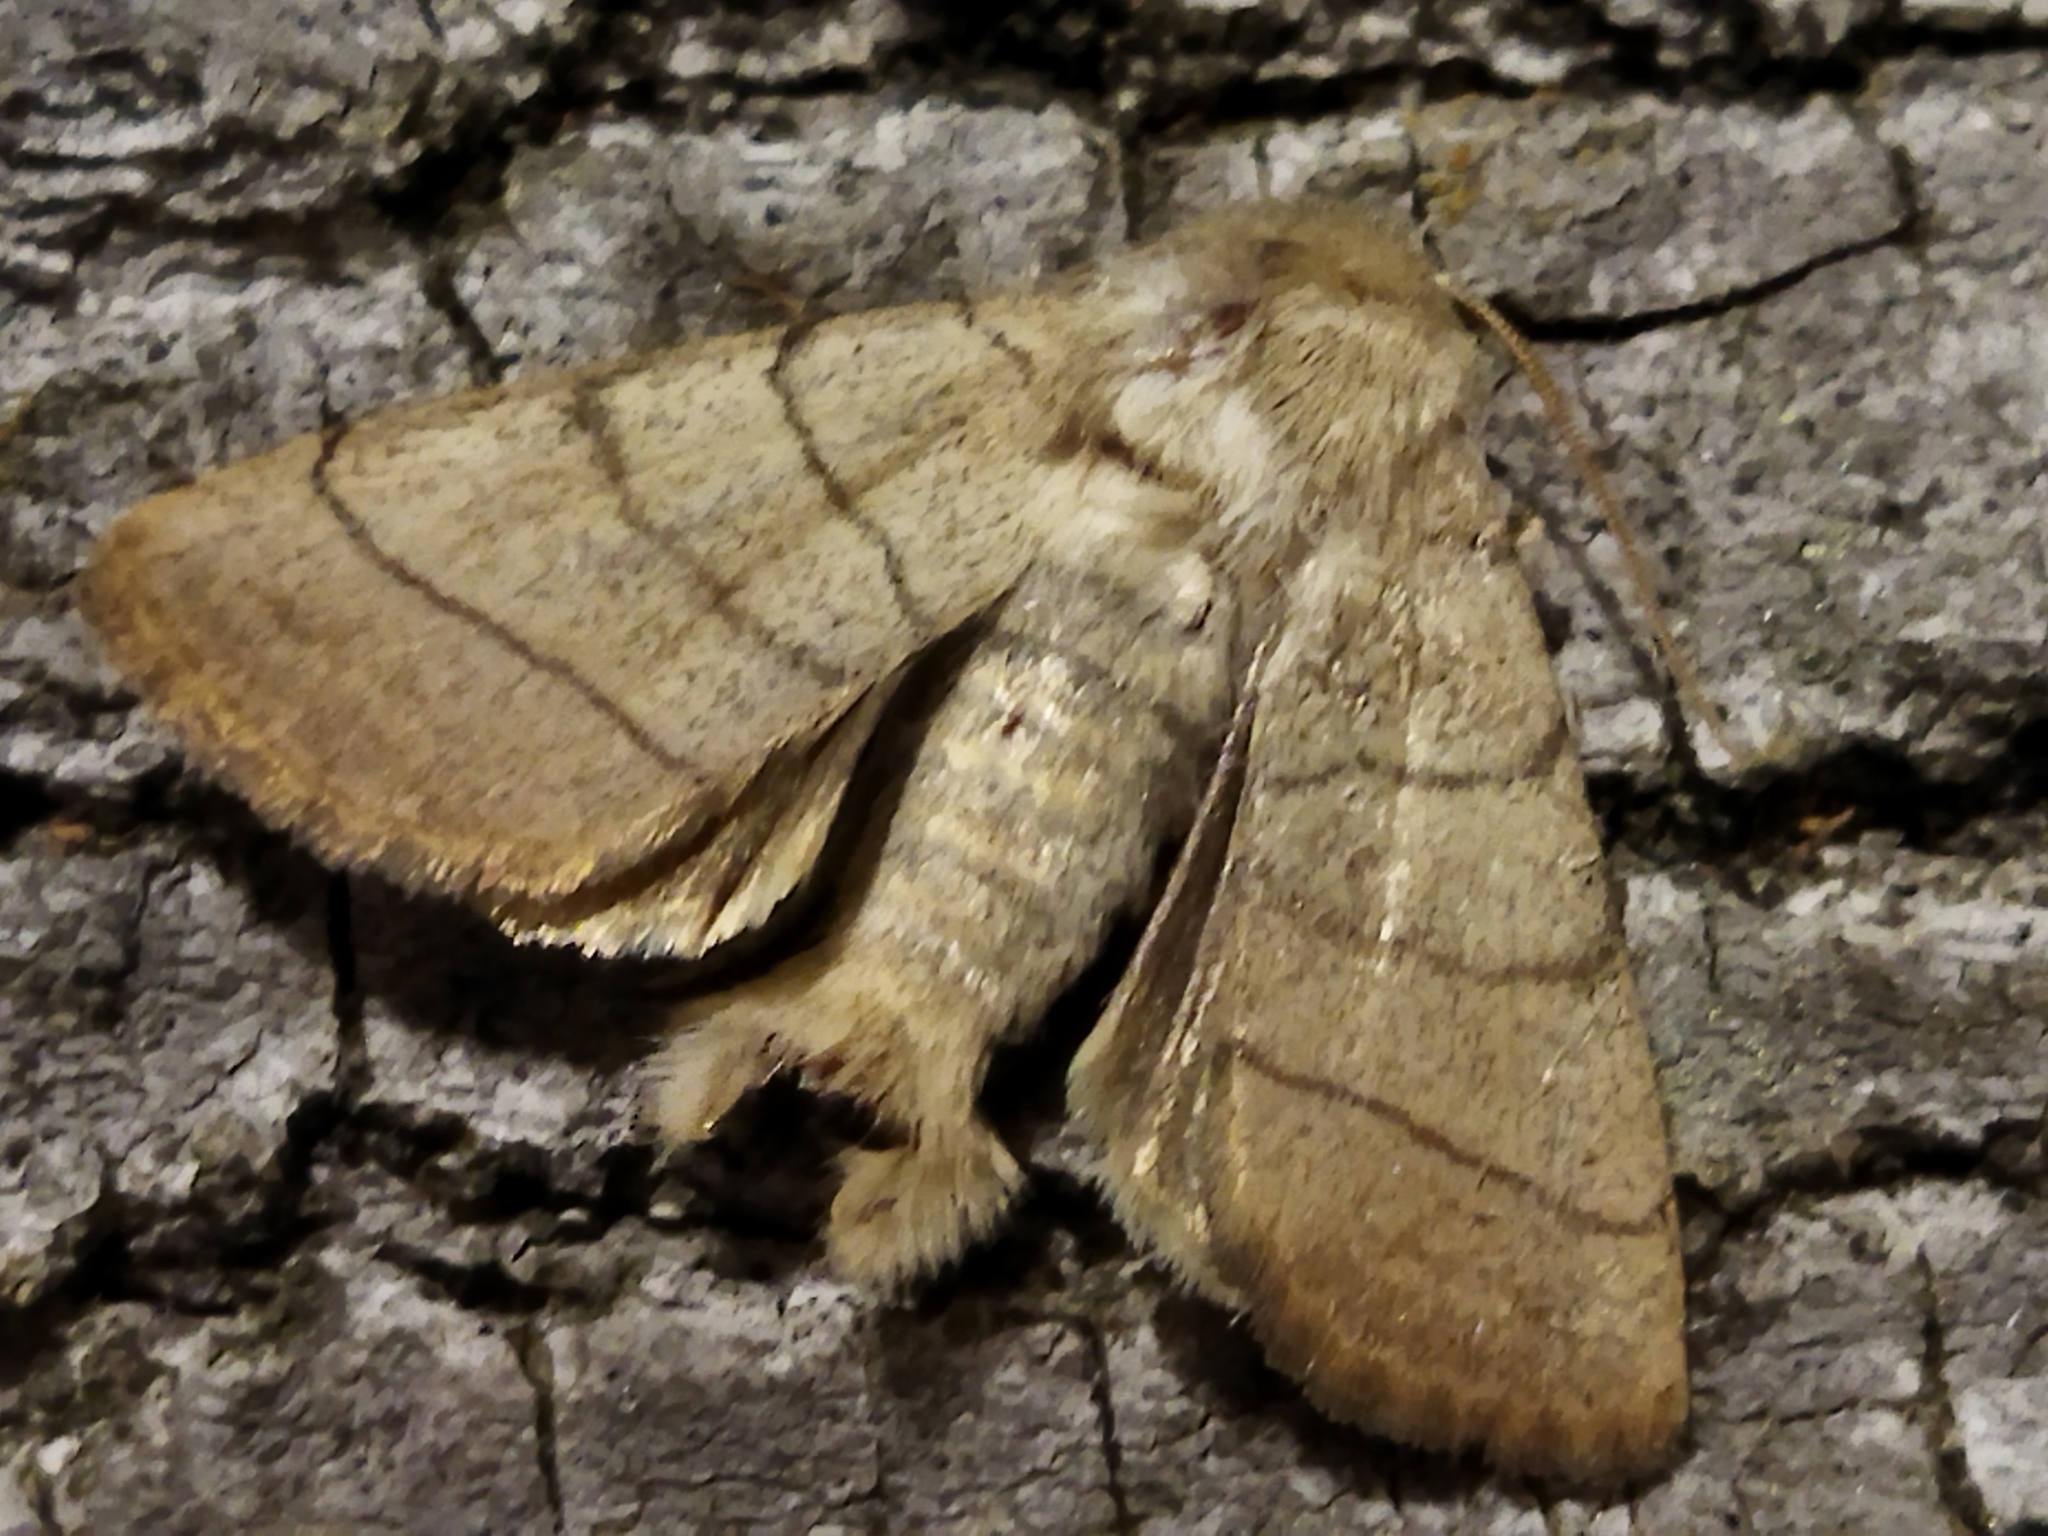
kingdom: Animalia
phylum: Arthropoda
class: Insecta
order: Lepidoptera
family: Noctuidae
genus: Charanyca
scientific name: Charanyca trigrammica
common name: Treble lines
